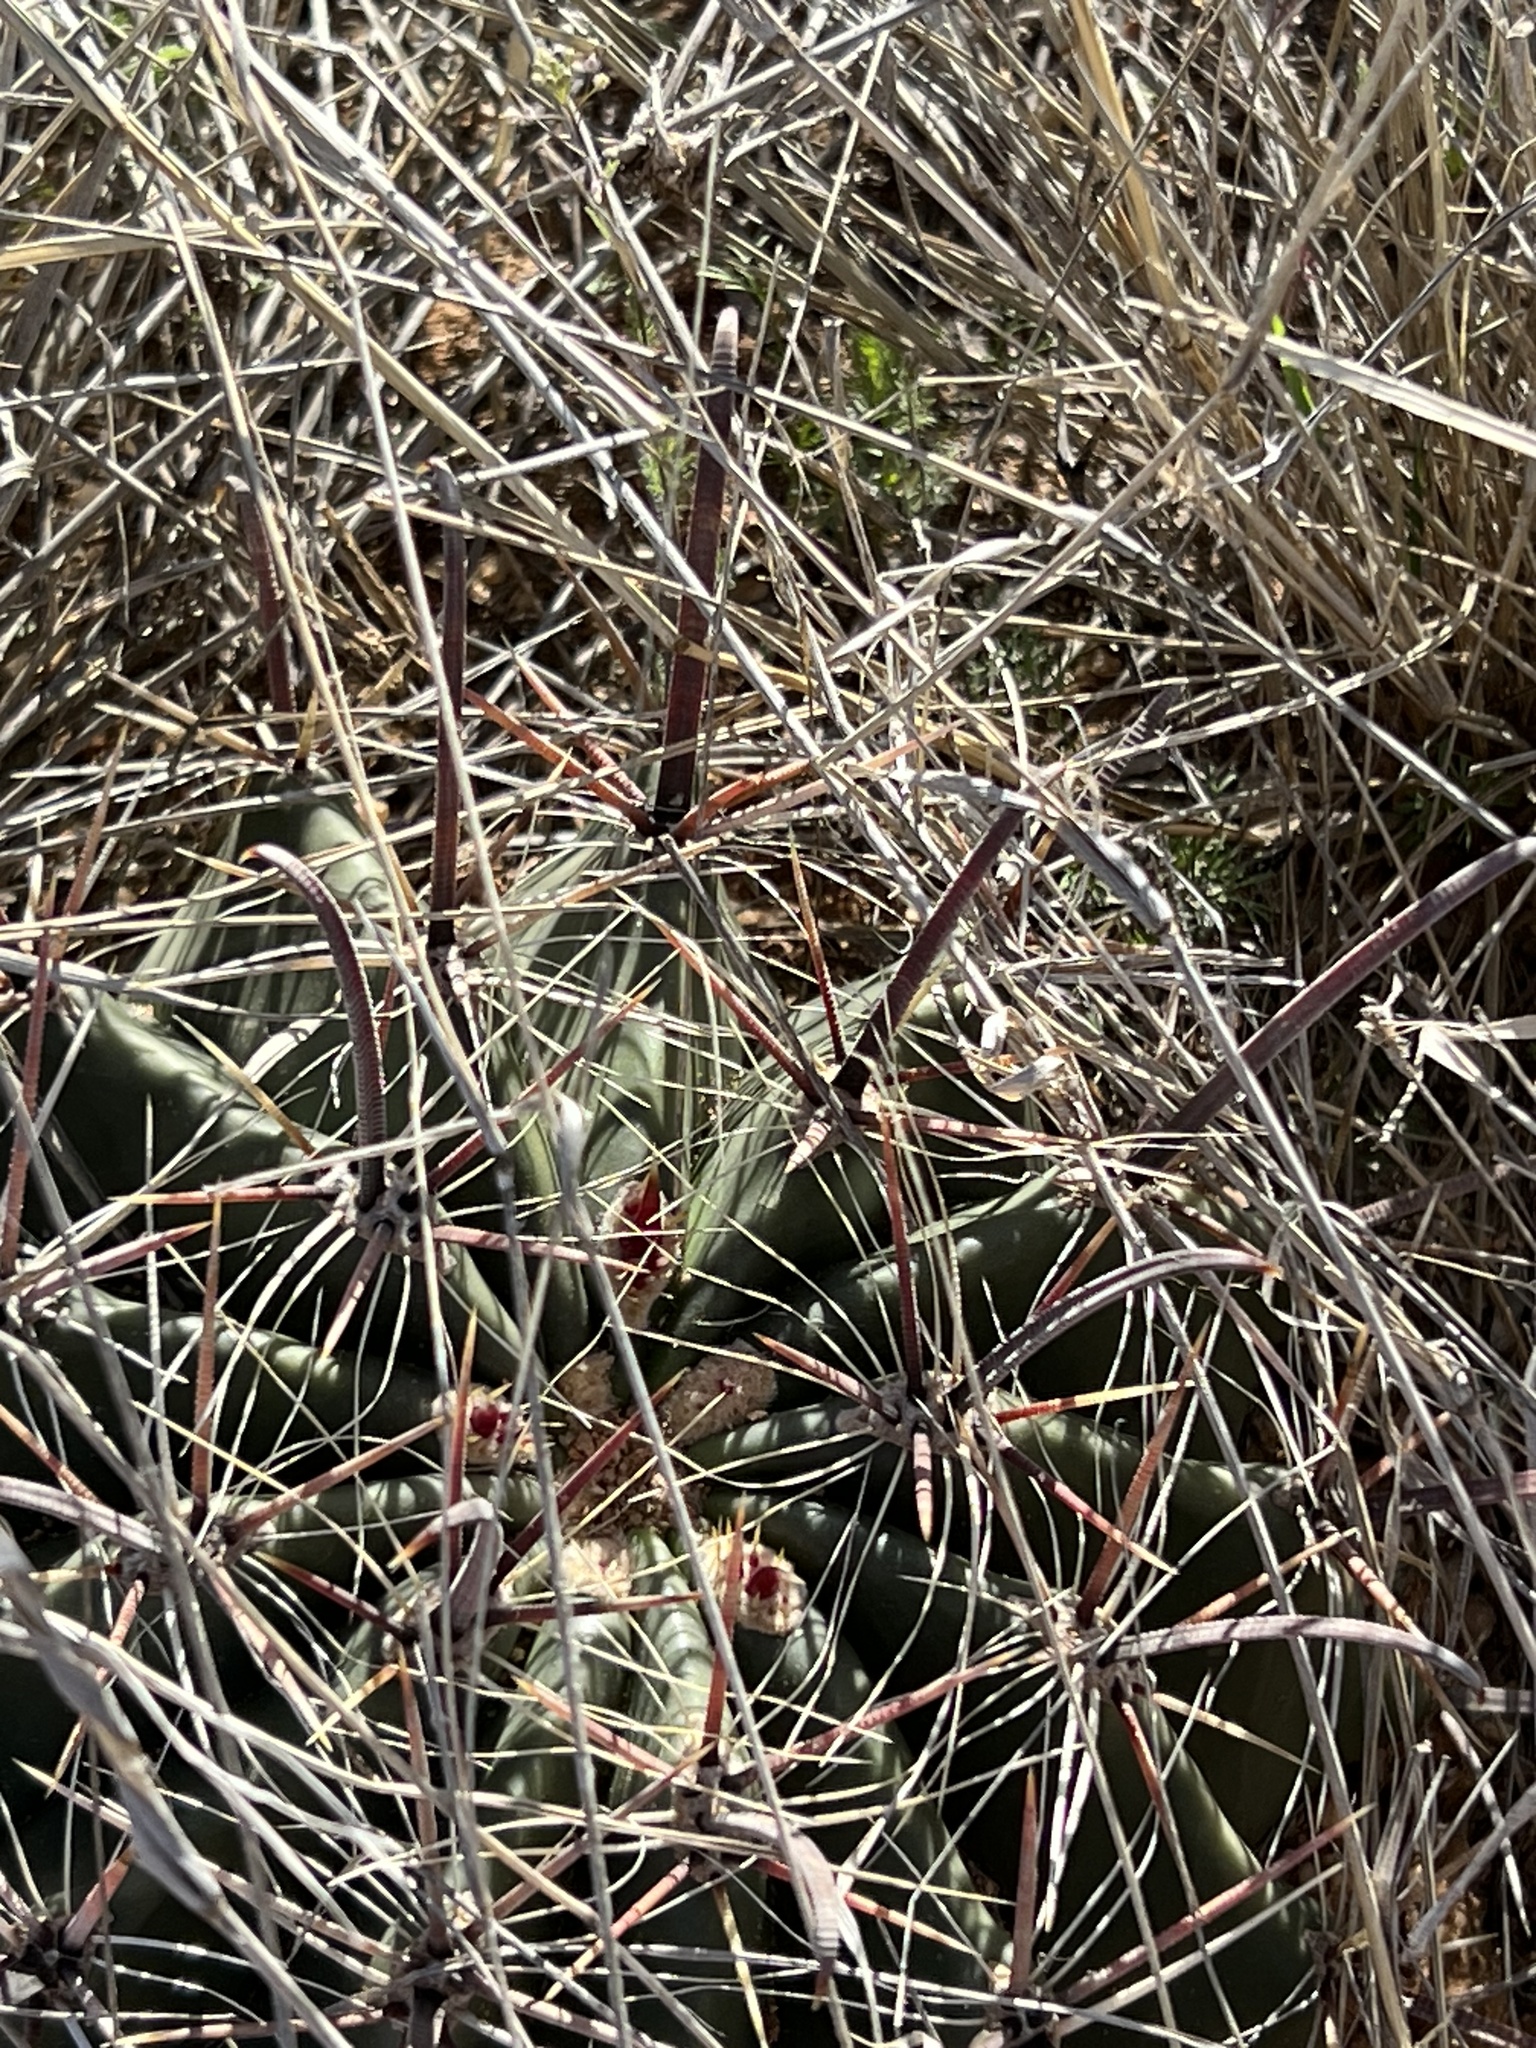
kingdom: Plantae
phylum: Tracheophyta
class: Magnoliopsida
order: Caryophyllales
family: Cactaceae
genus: Ferocactus
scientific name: Ferocactus wislizeni
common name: Candy barrel cactus
